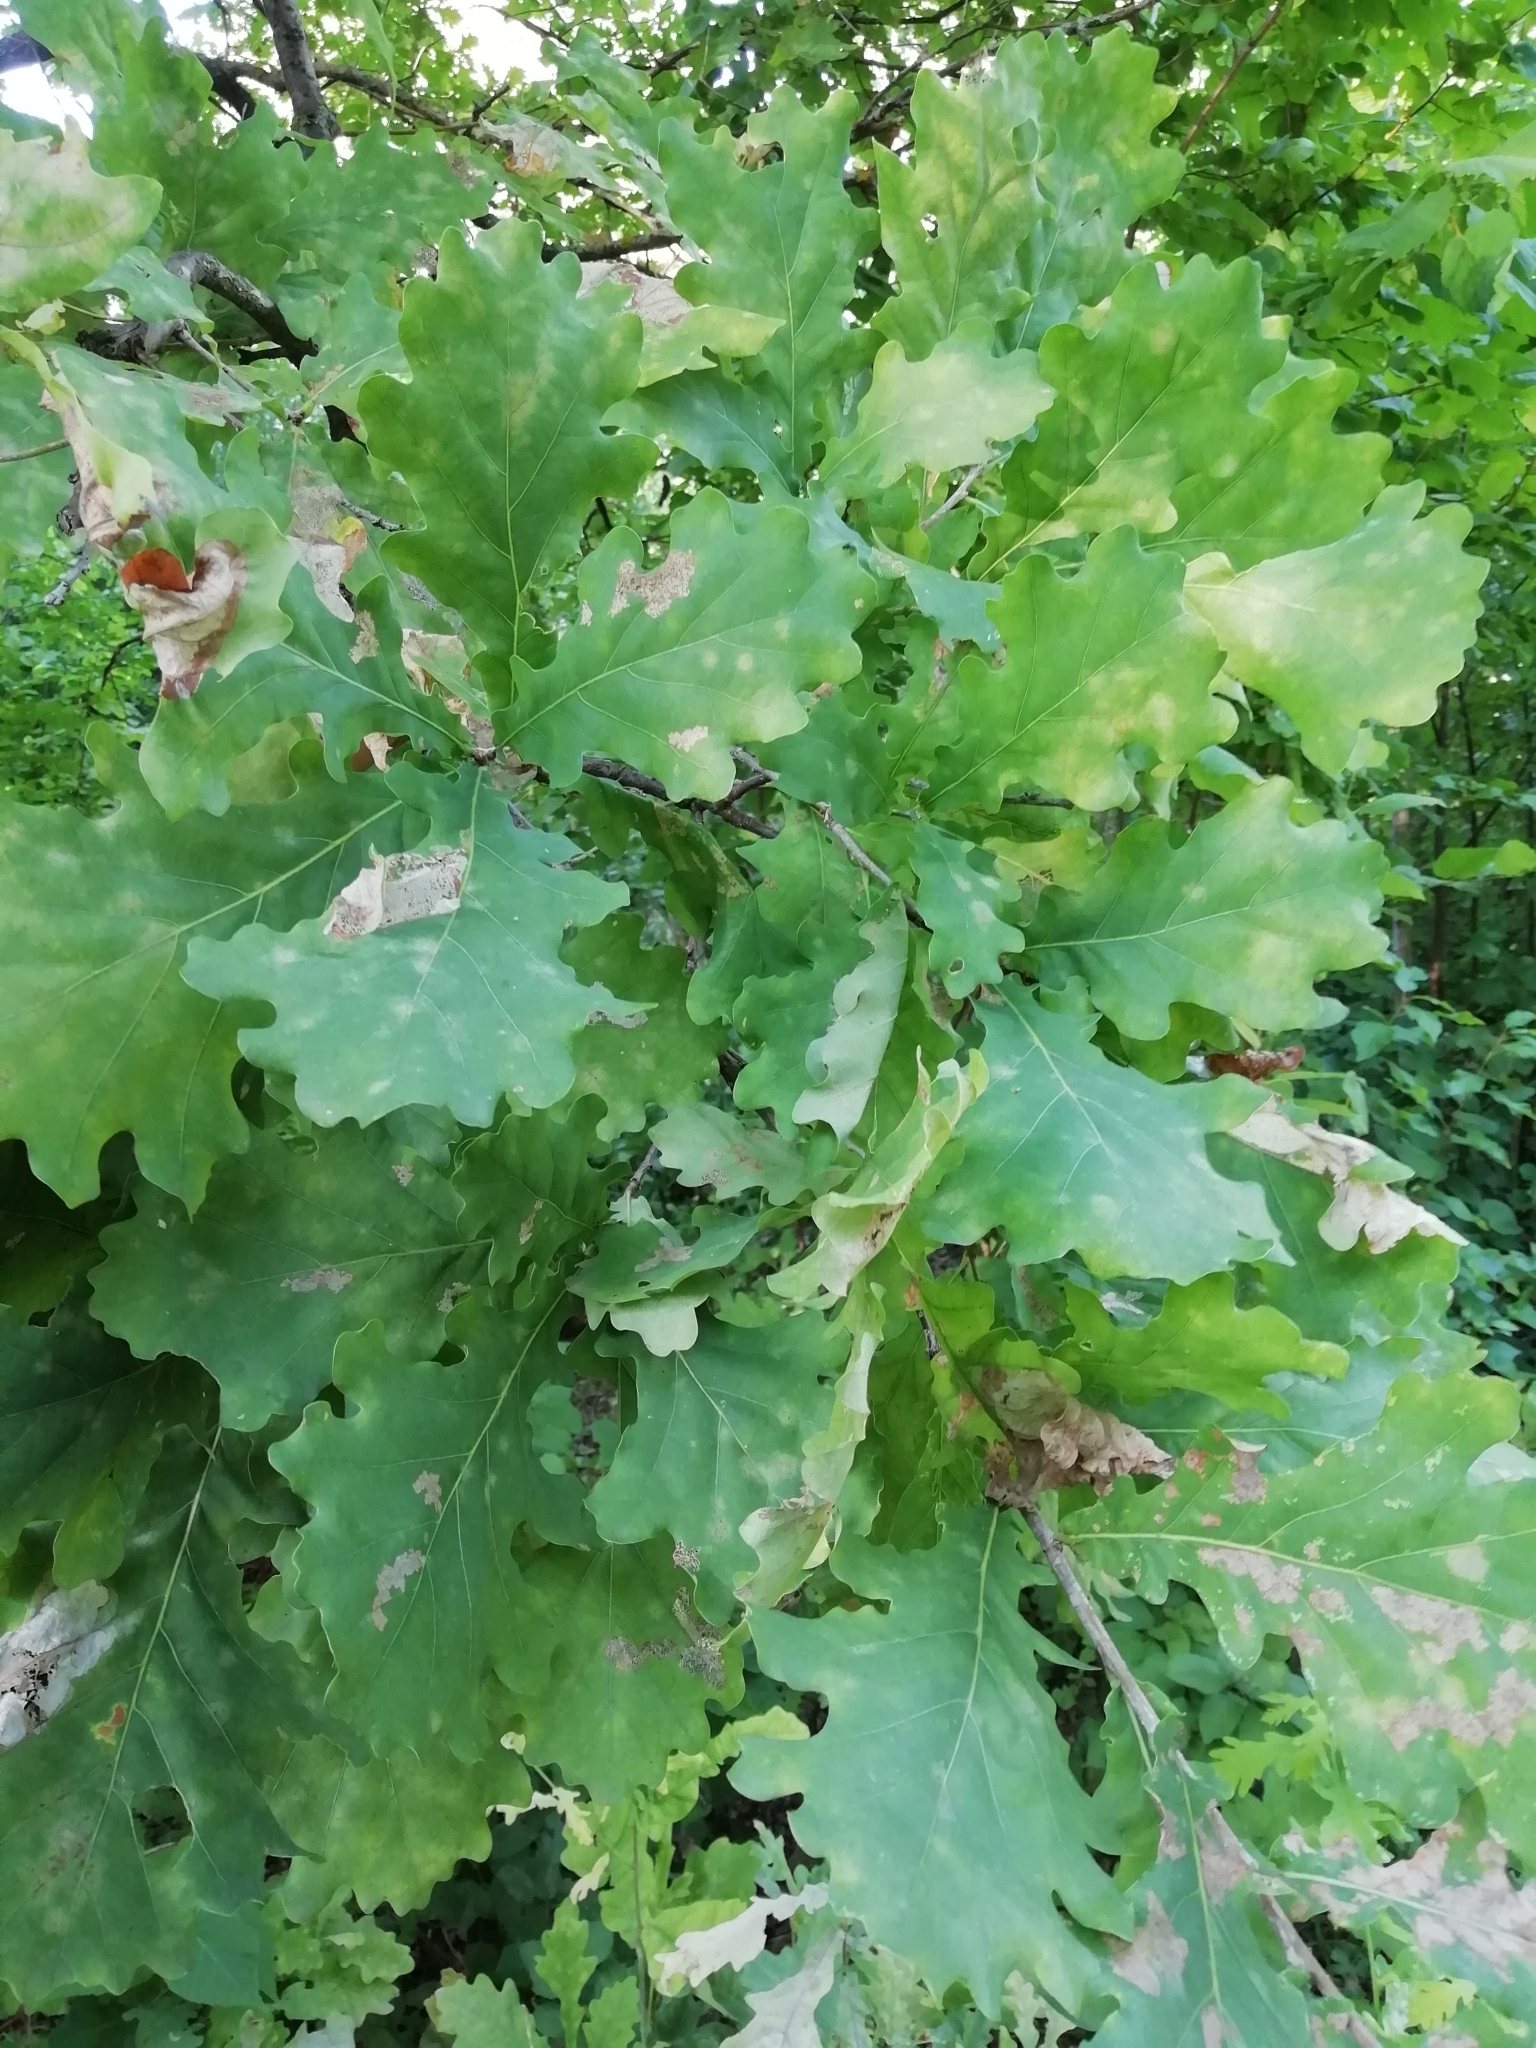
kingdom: Plantae
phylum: Tracheophyta
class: Magnoliopsida
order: Fagales
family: Fagaceae
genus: Quercus
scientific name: Quercus robur
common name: Pedunculate oak
